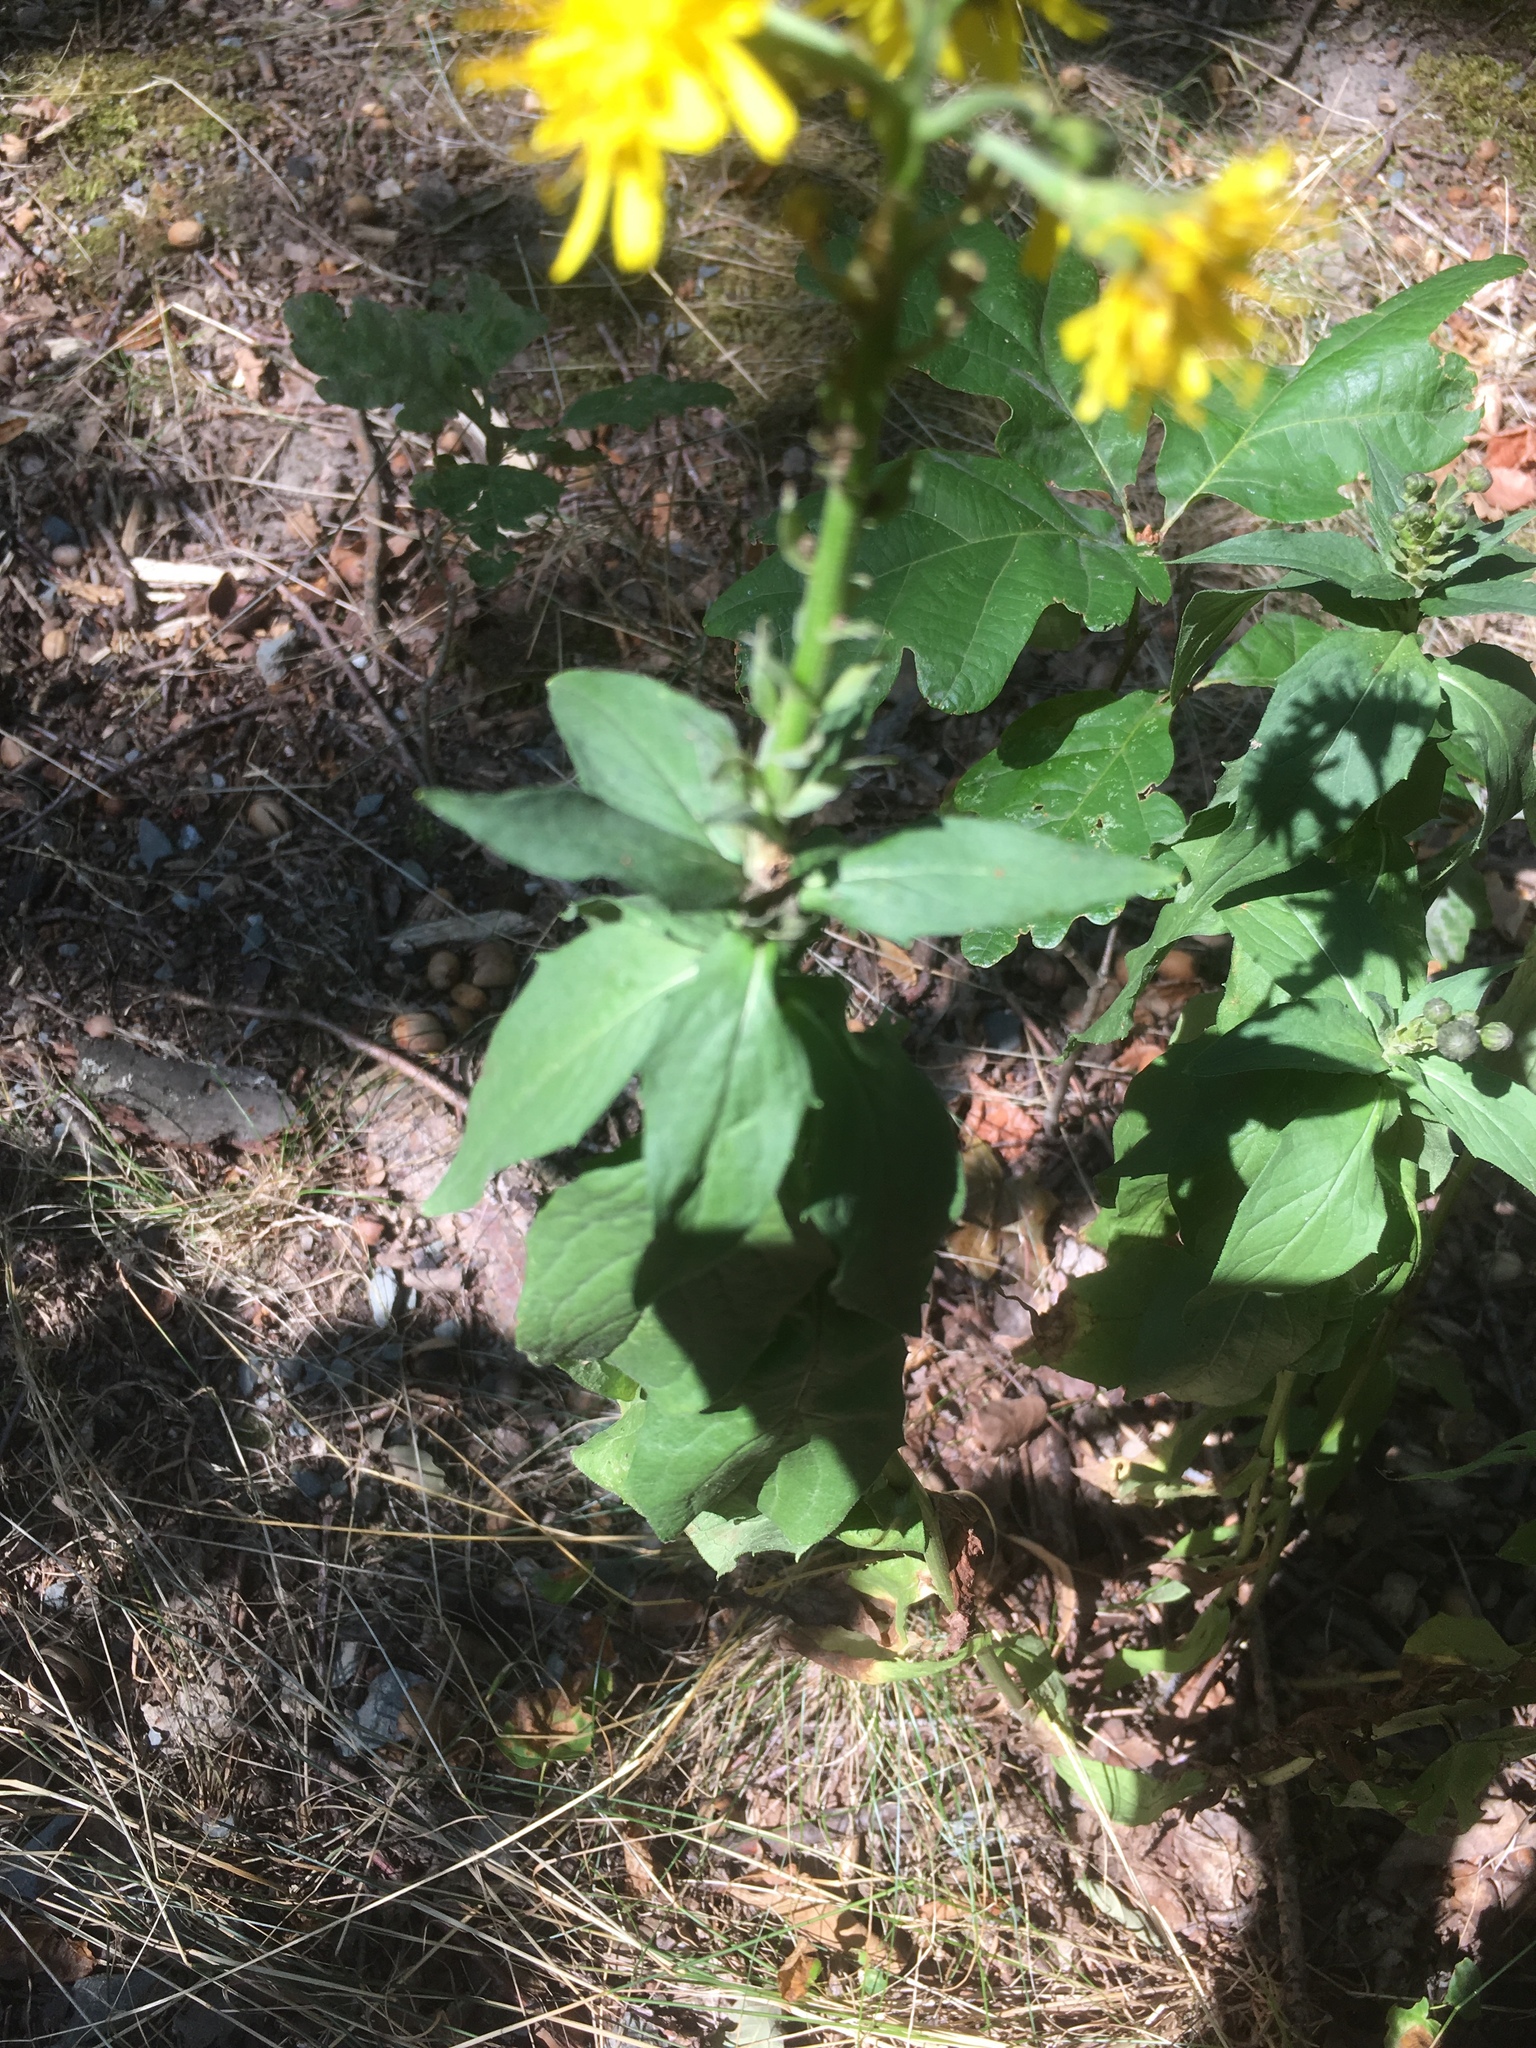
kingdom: Plantae
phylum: Tracheophyta
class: Magnoliopsida
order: Asterales
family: Asteraceae
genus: Hieracium
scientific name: Hieracium umbellatum
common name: Northern hawkweed
